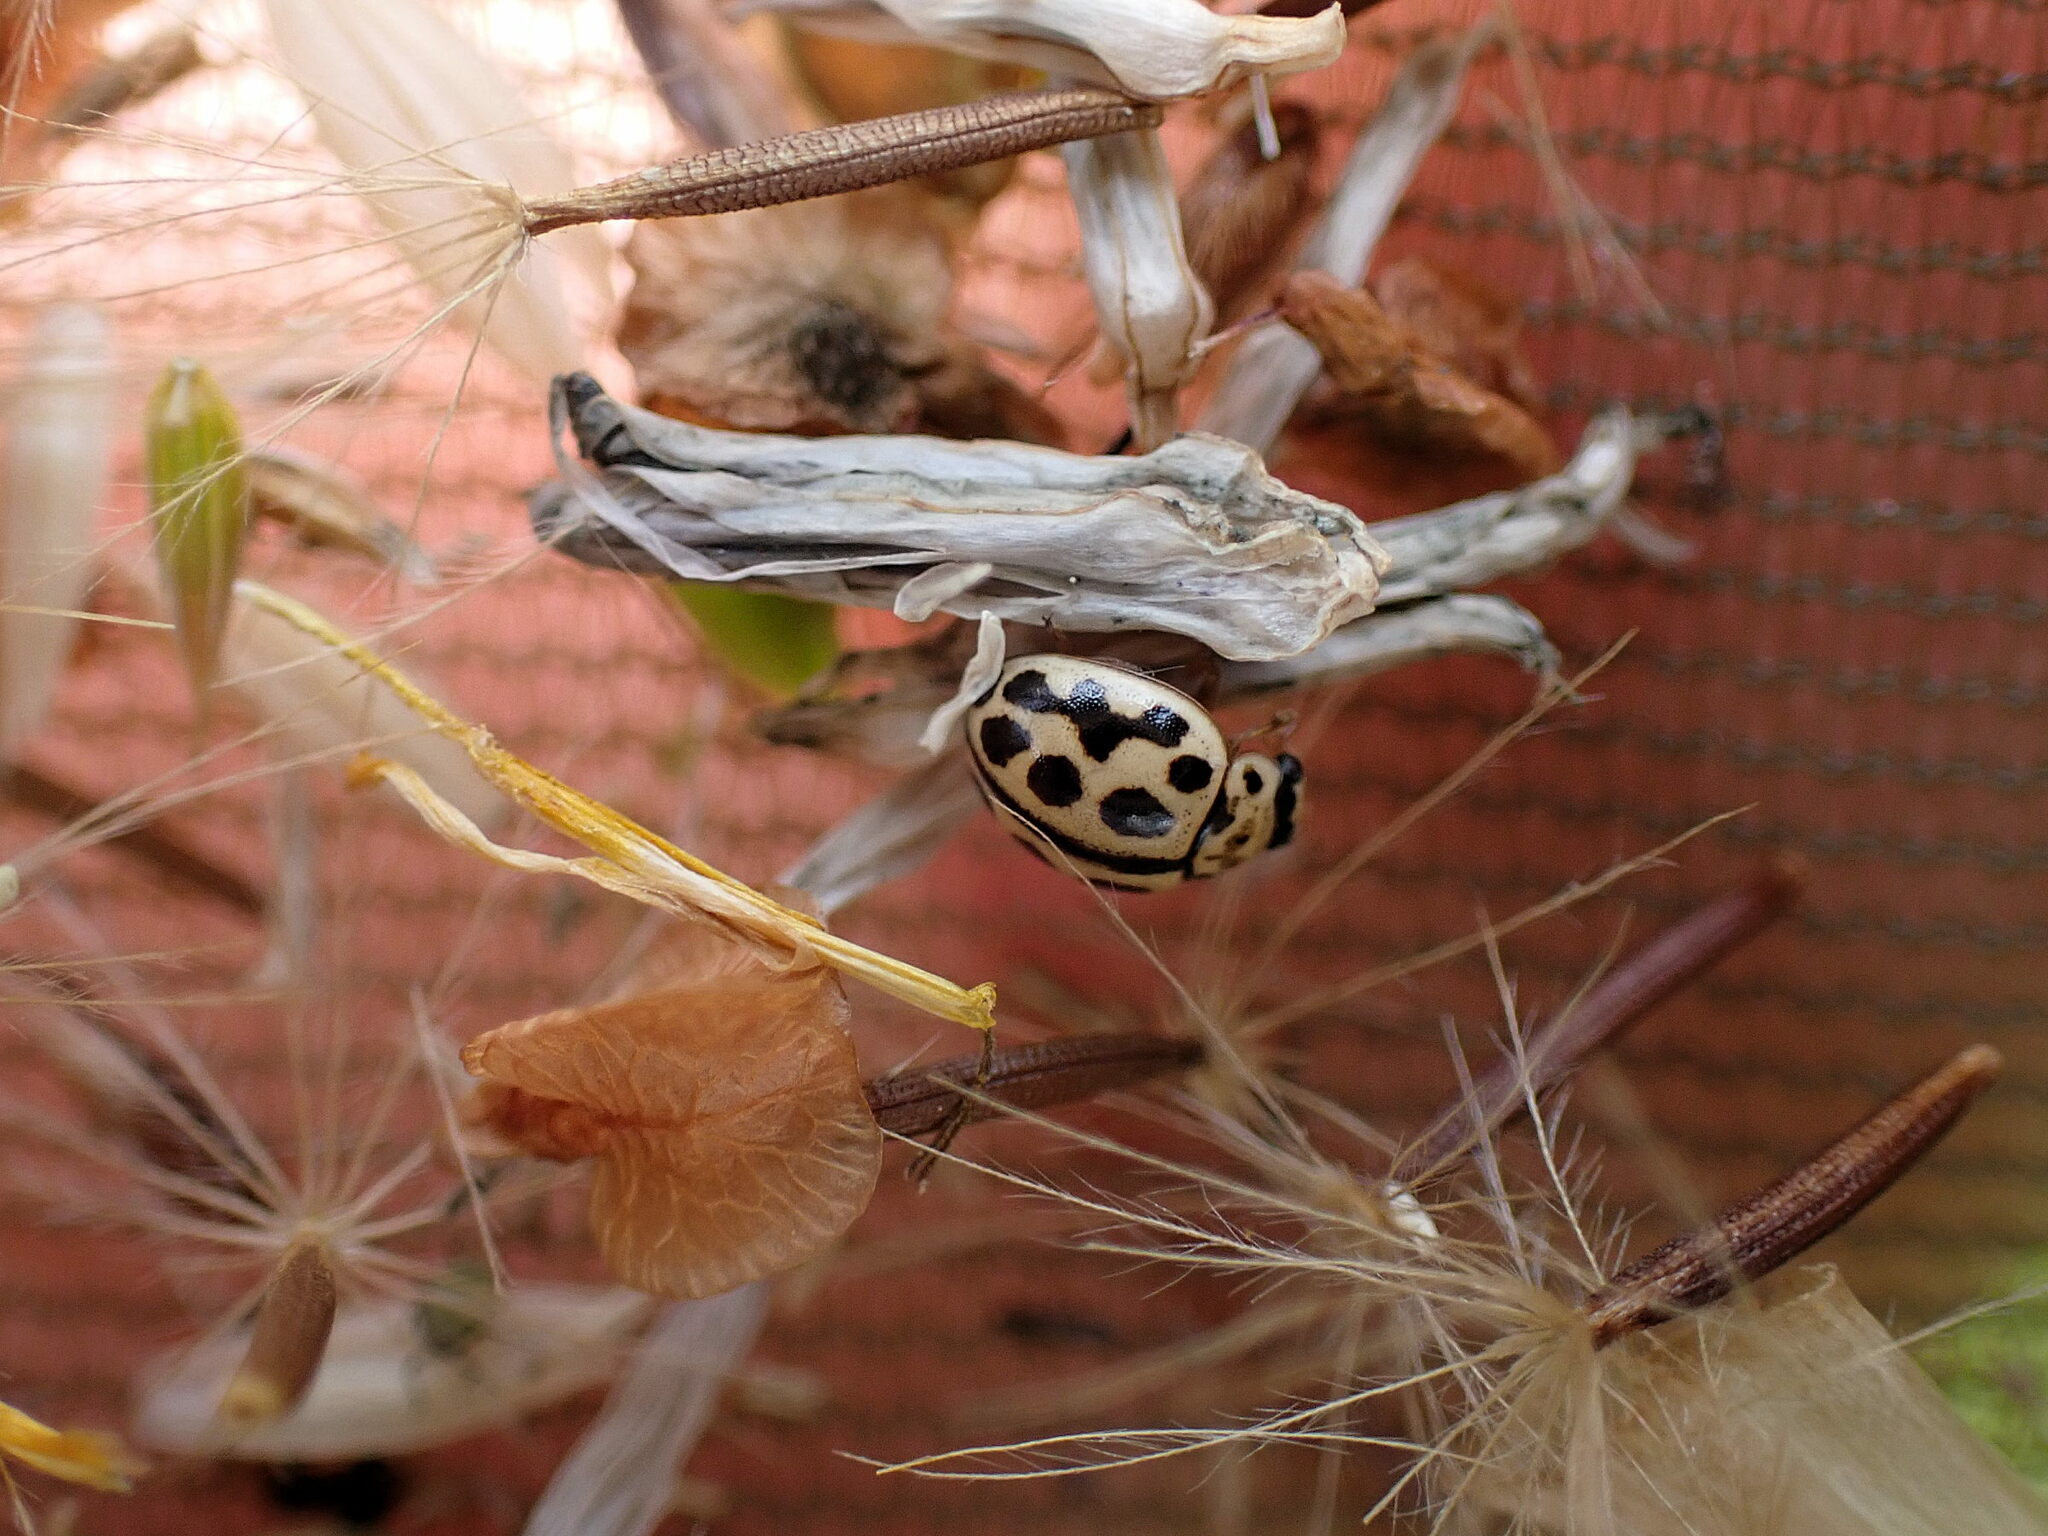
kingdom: Animalia
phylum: Arthropoda
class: Insecta
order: Coleoptera
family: Coccinellidae
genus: Tytthaspis
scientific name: Tytthaspis sedecimpunctata
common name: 16-spot ladybird
